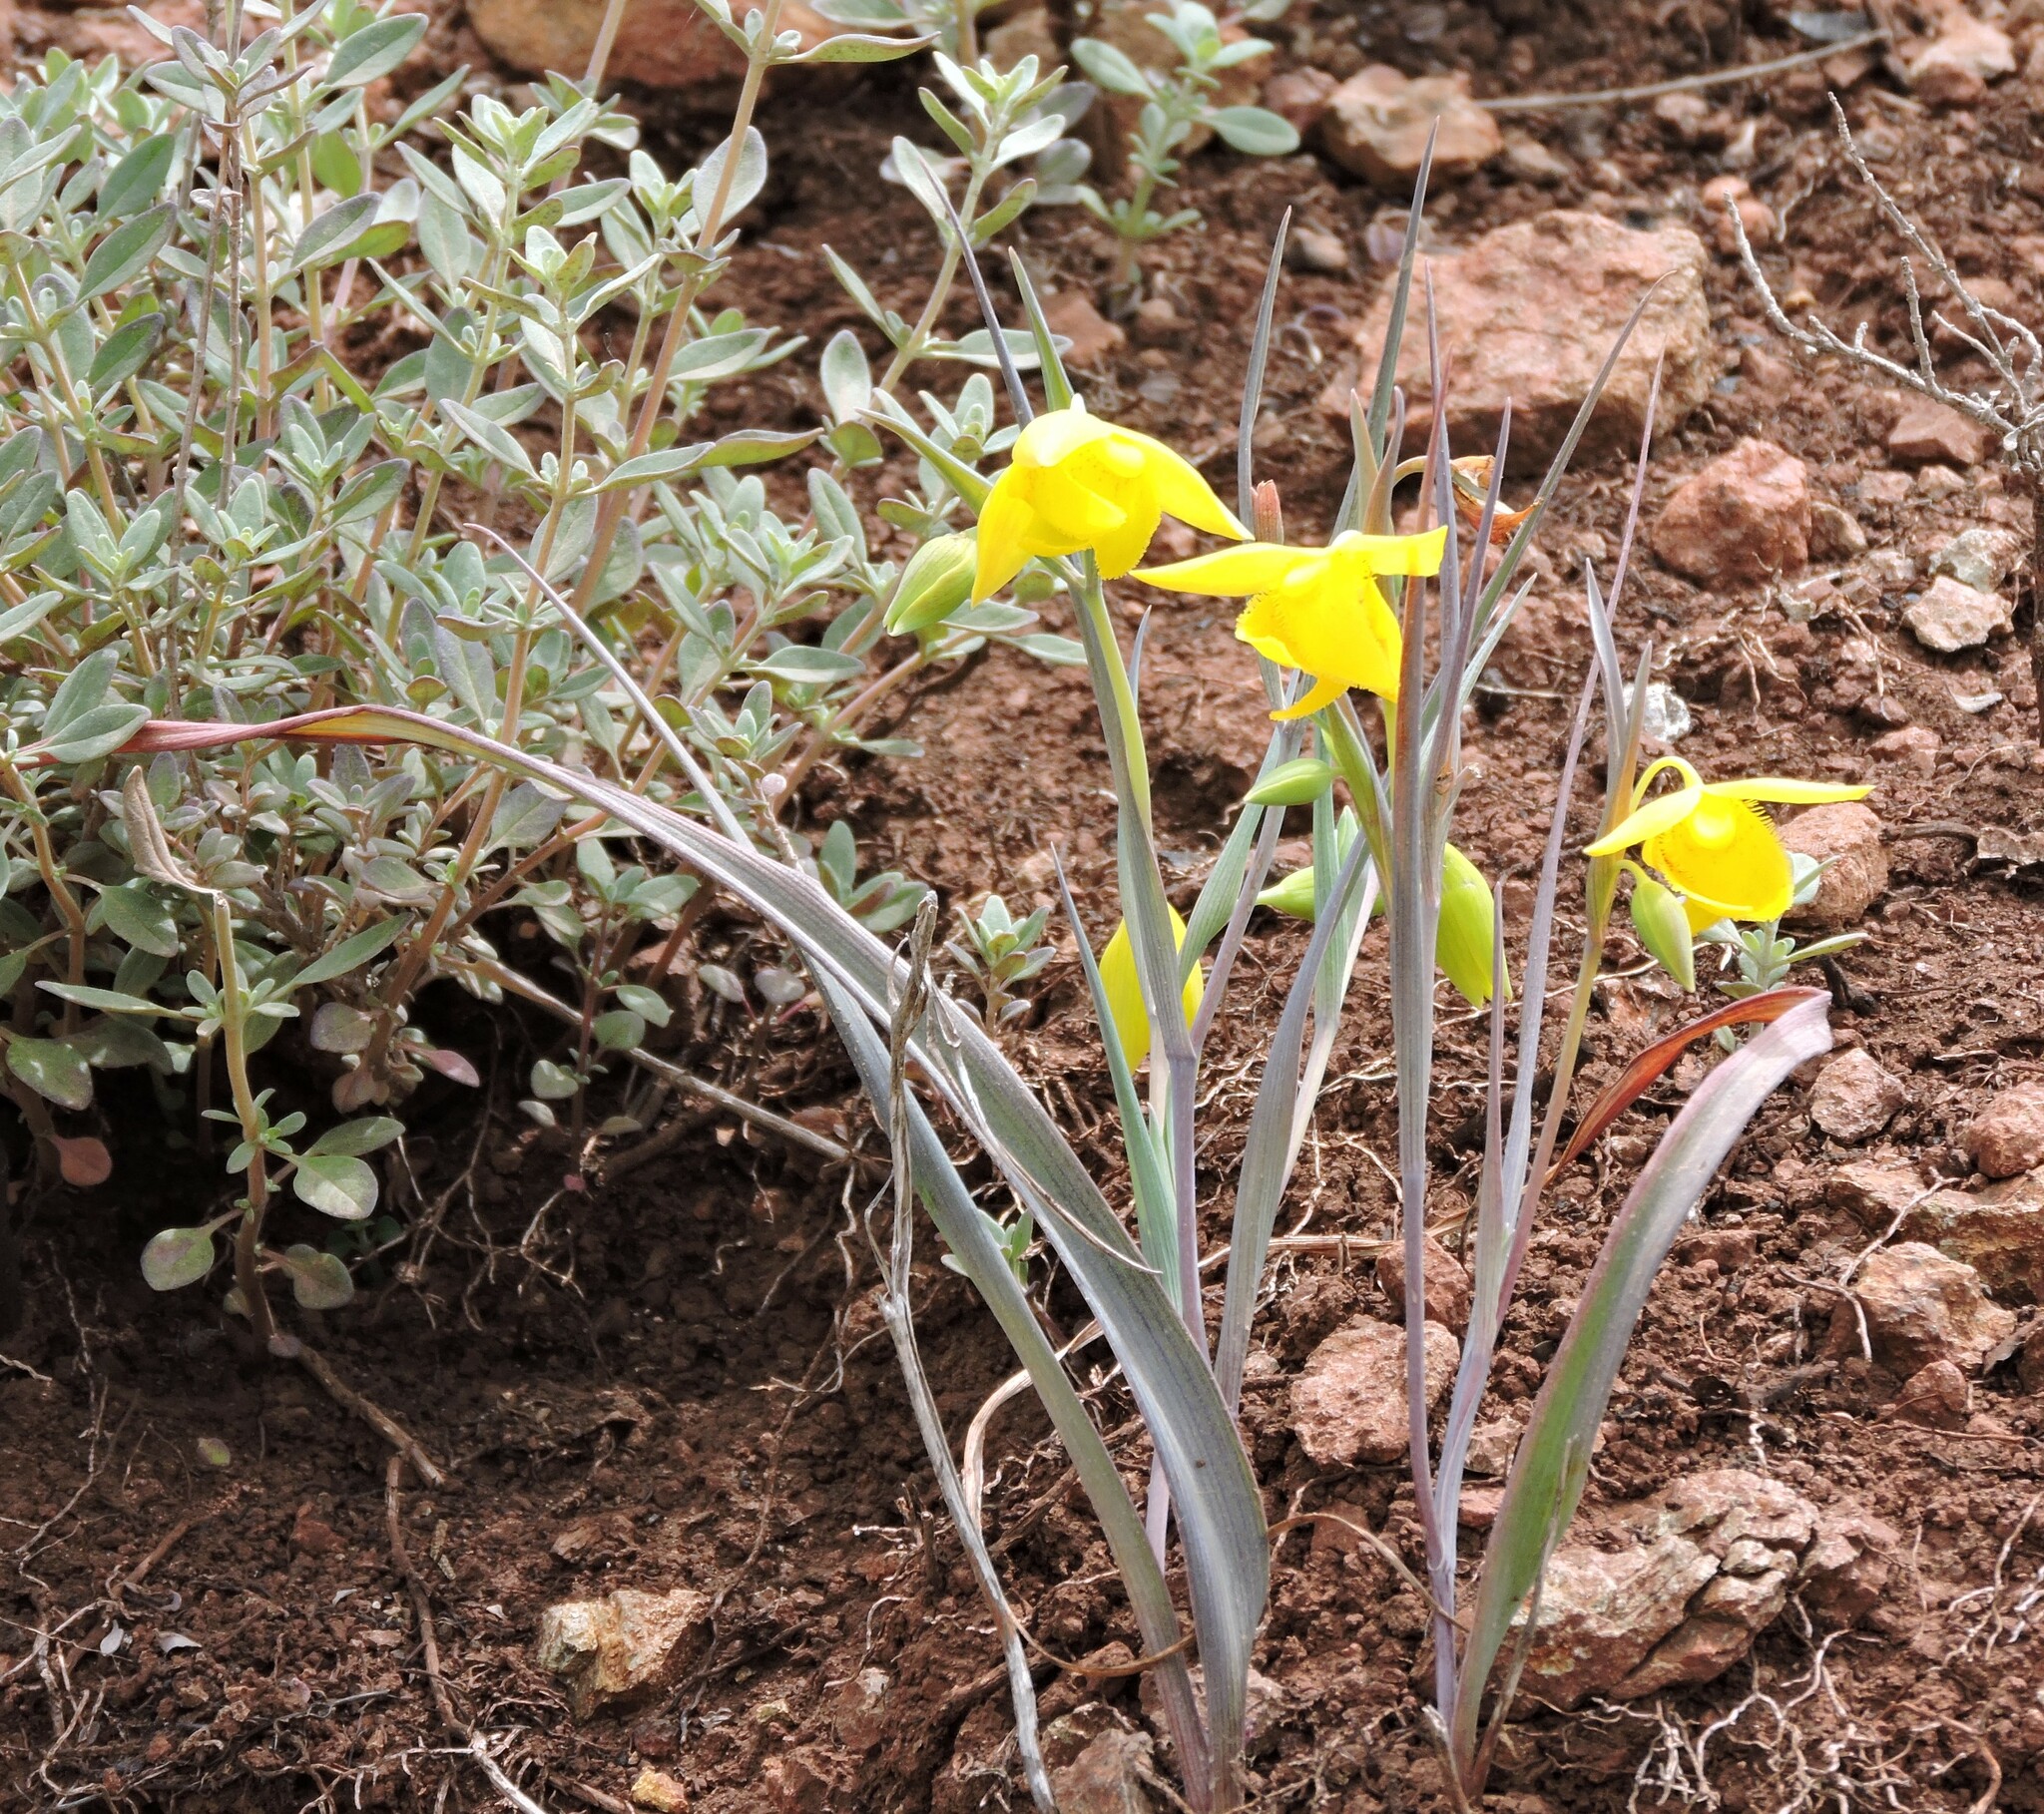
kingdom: Plantae
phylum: Tracheophyta
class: Liliopsida
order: Liliales
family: Liliaceae
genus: Calochortus
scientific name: Calochortus amabilis
